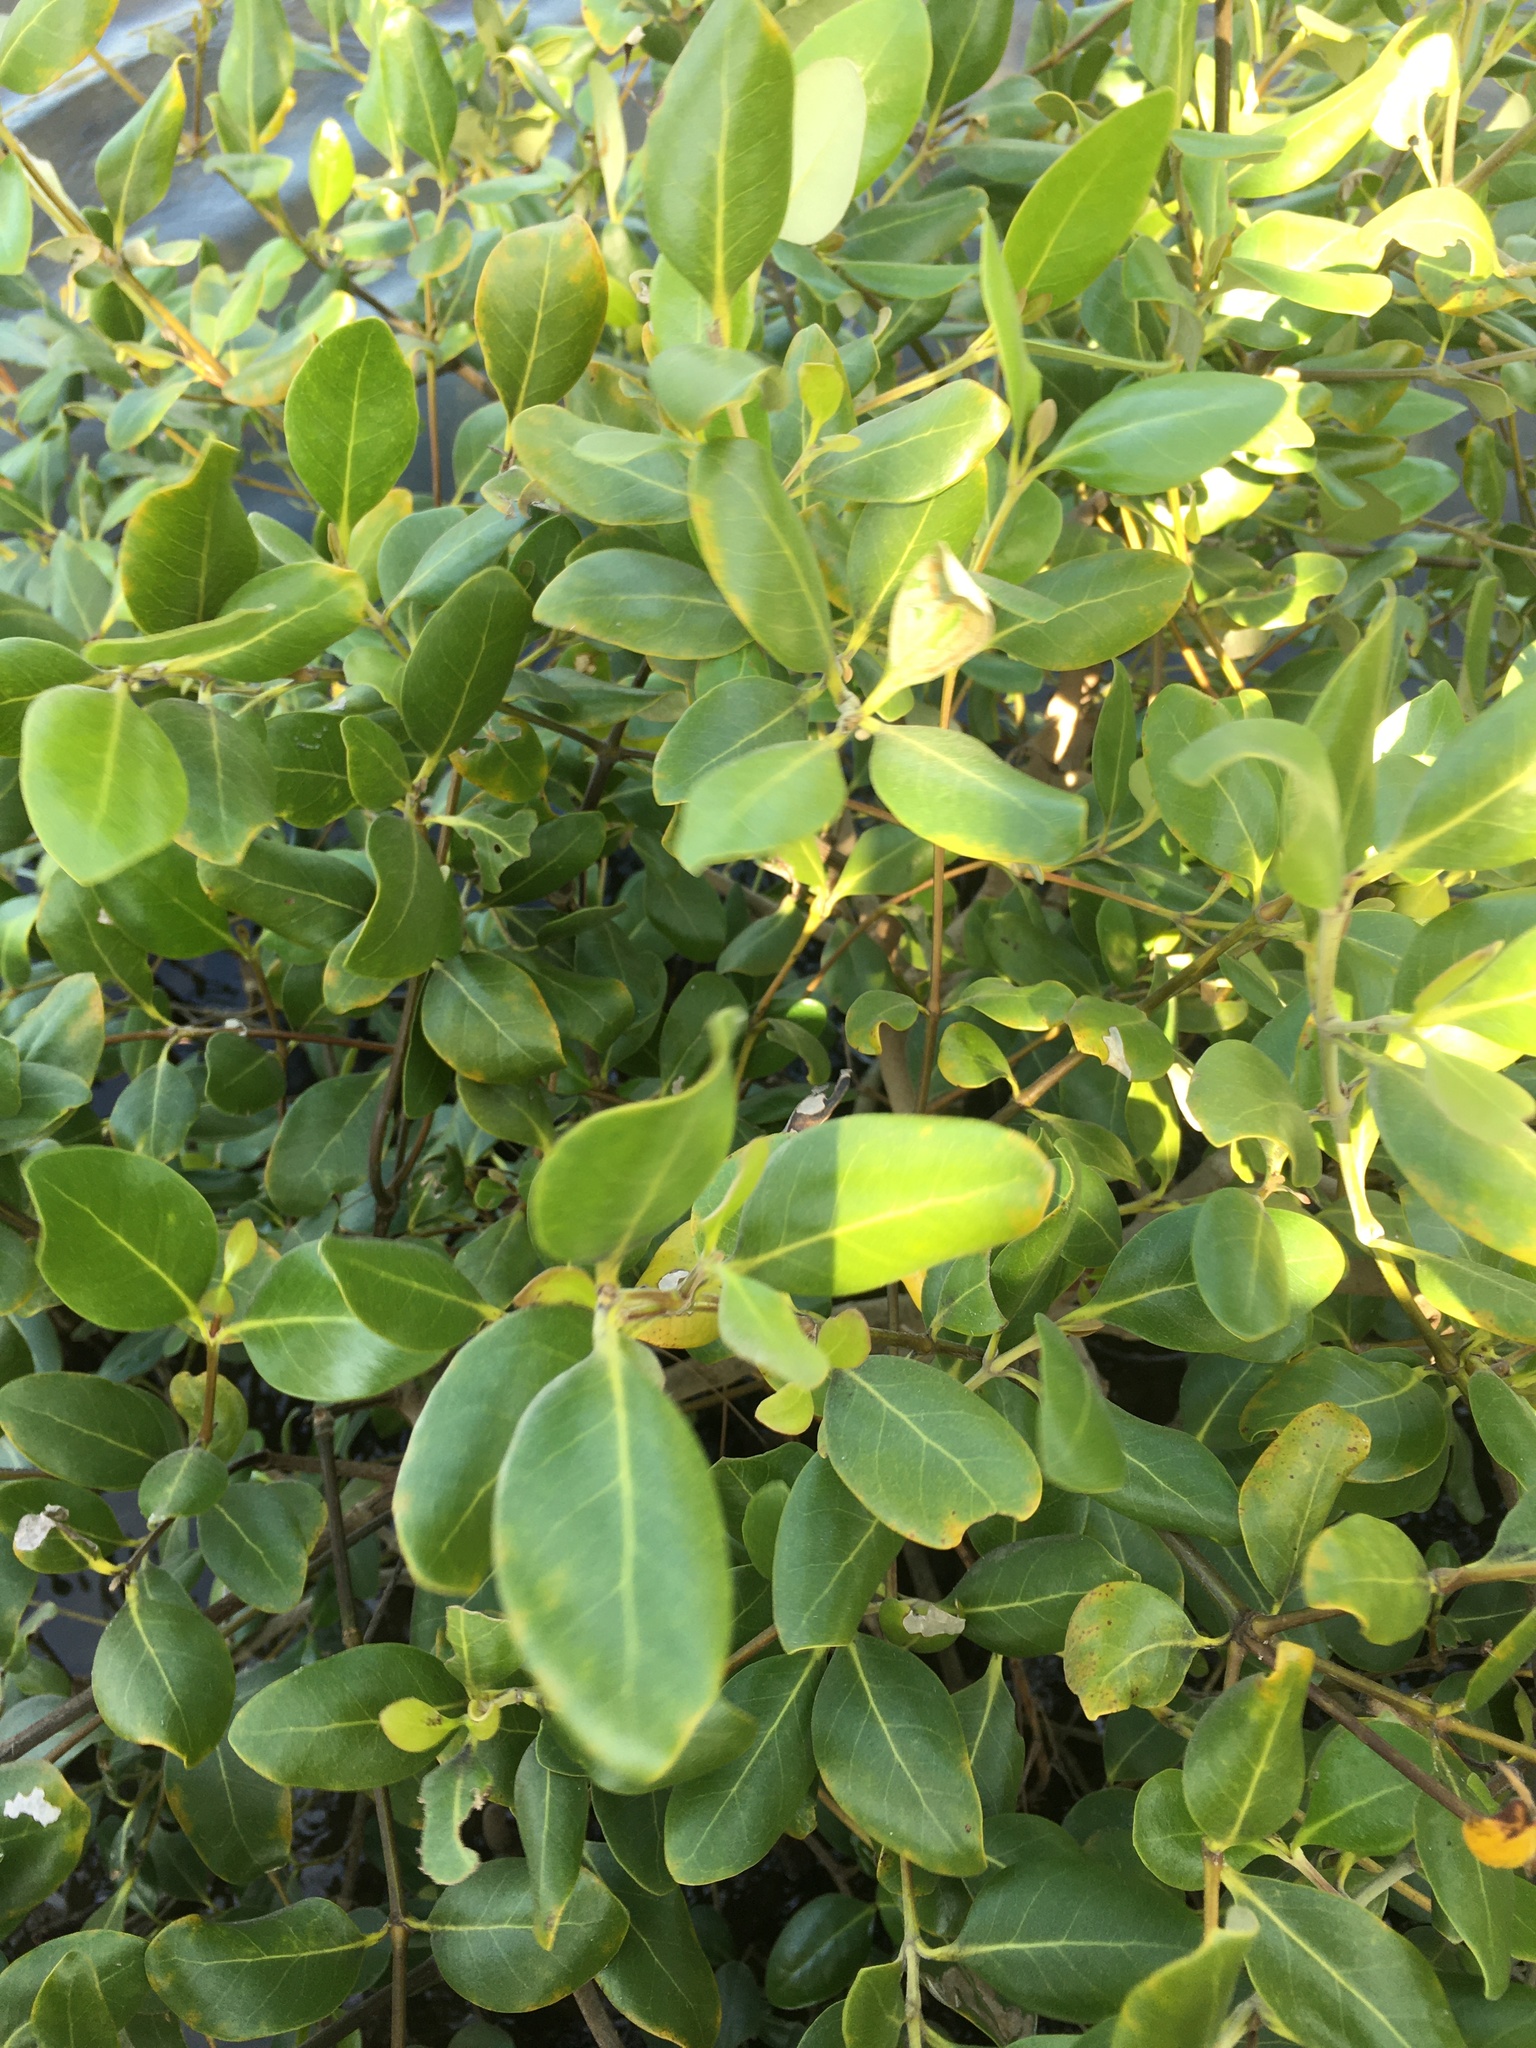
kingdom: Plantae
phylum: Tracheophyta
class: Magnoliopsida
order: Lamiales
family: Acanthaceae
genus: Avicennia
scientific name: Avicennia marina
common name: Gray mangrove
